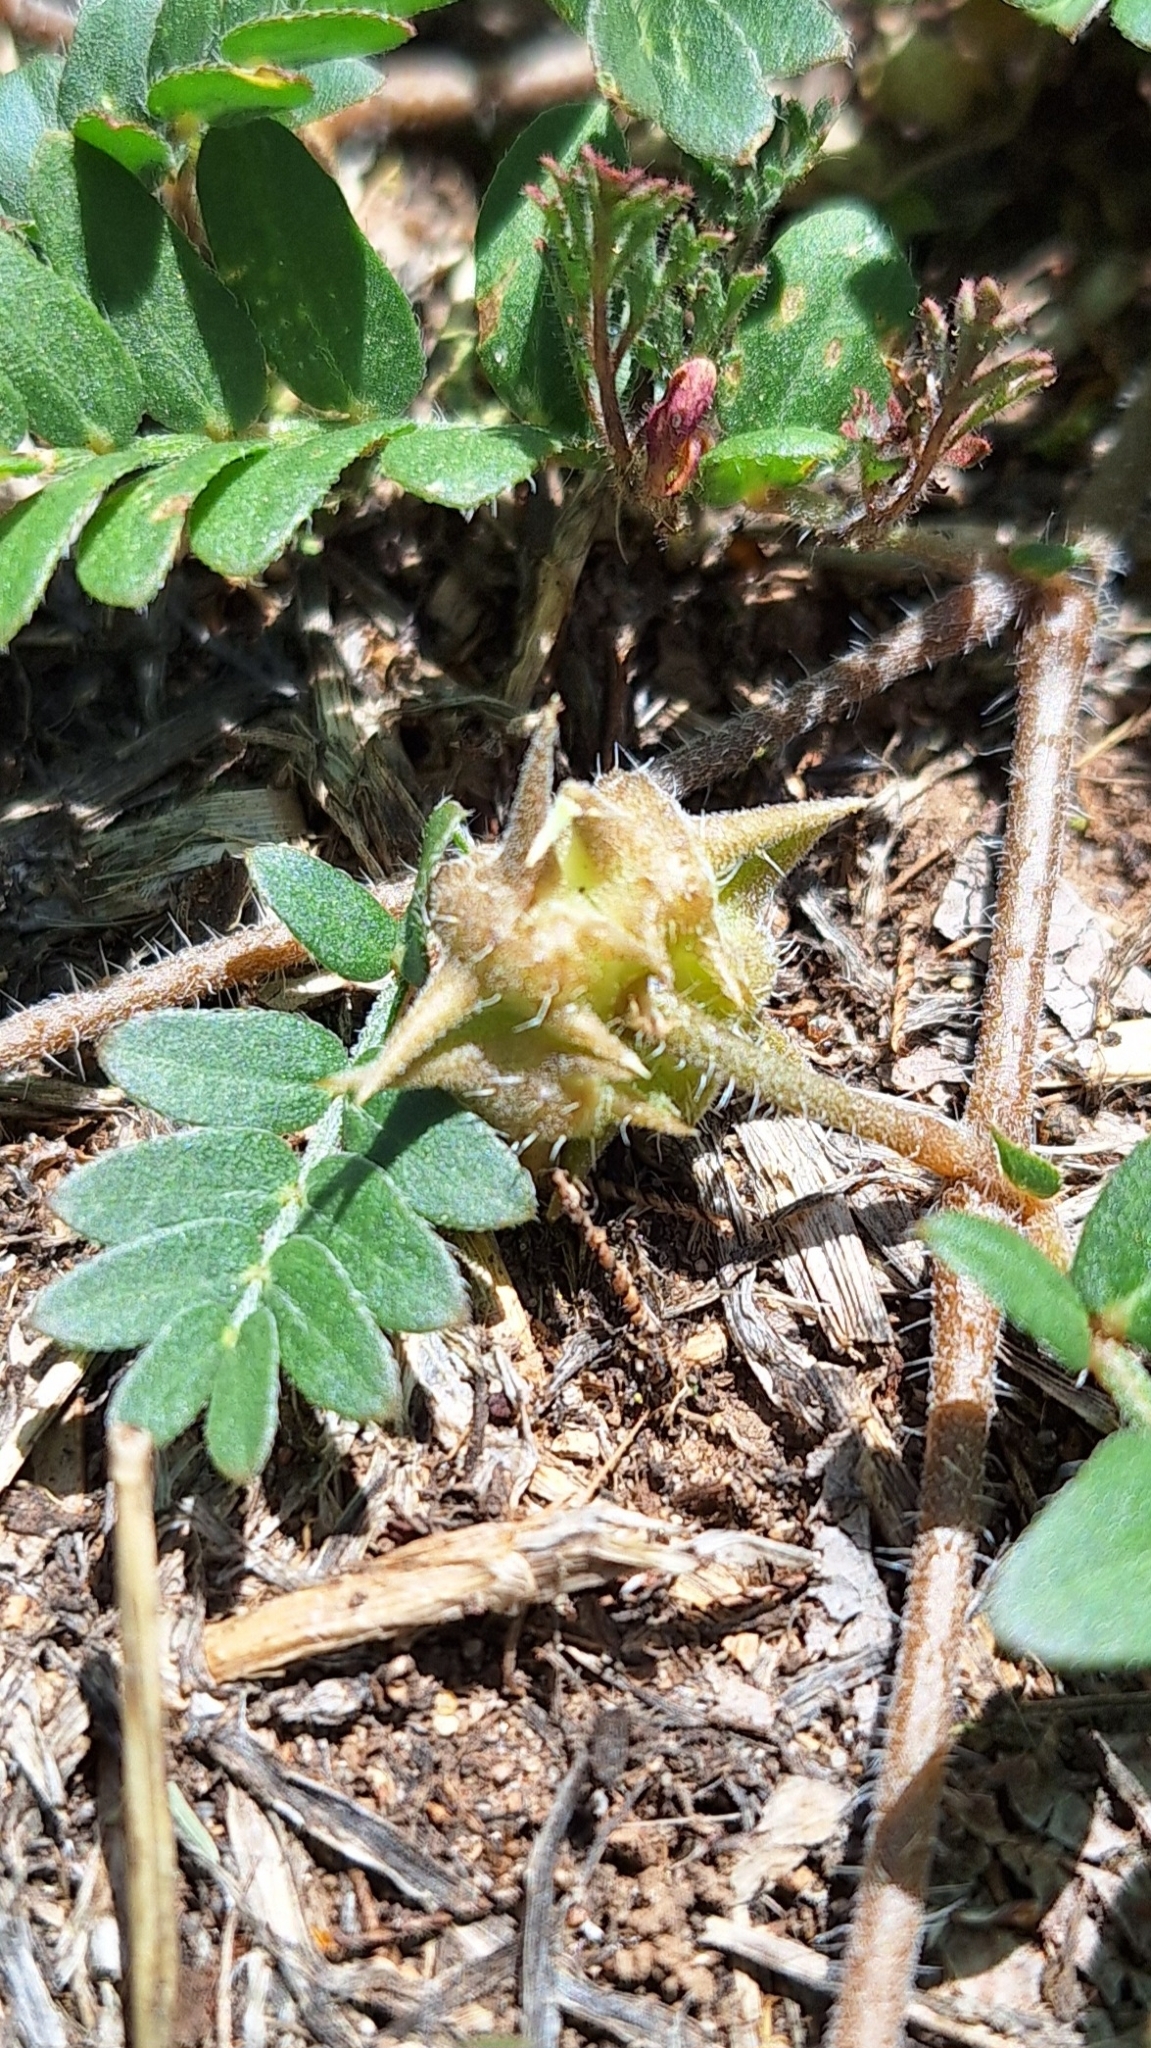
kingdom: Plantae
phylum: Tracheophyta
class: Magnoliopsida
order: Zygophyllales
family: Zygophyllaceae
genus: Tribulus
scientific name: Tribulus terrestris
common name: Puncturevine
